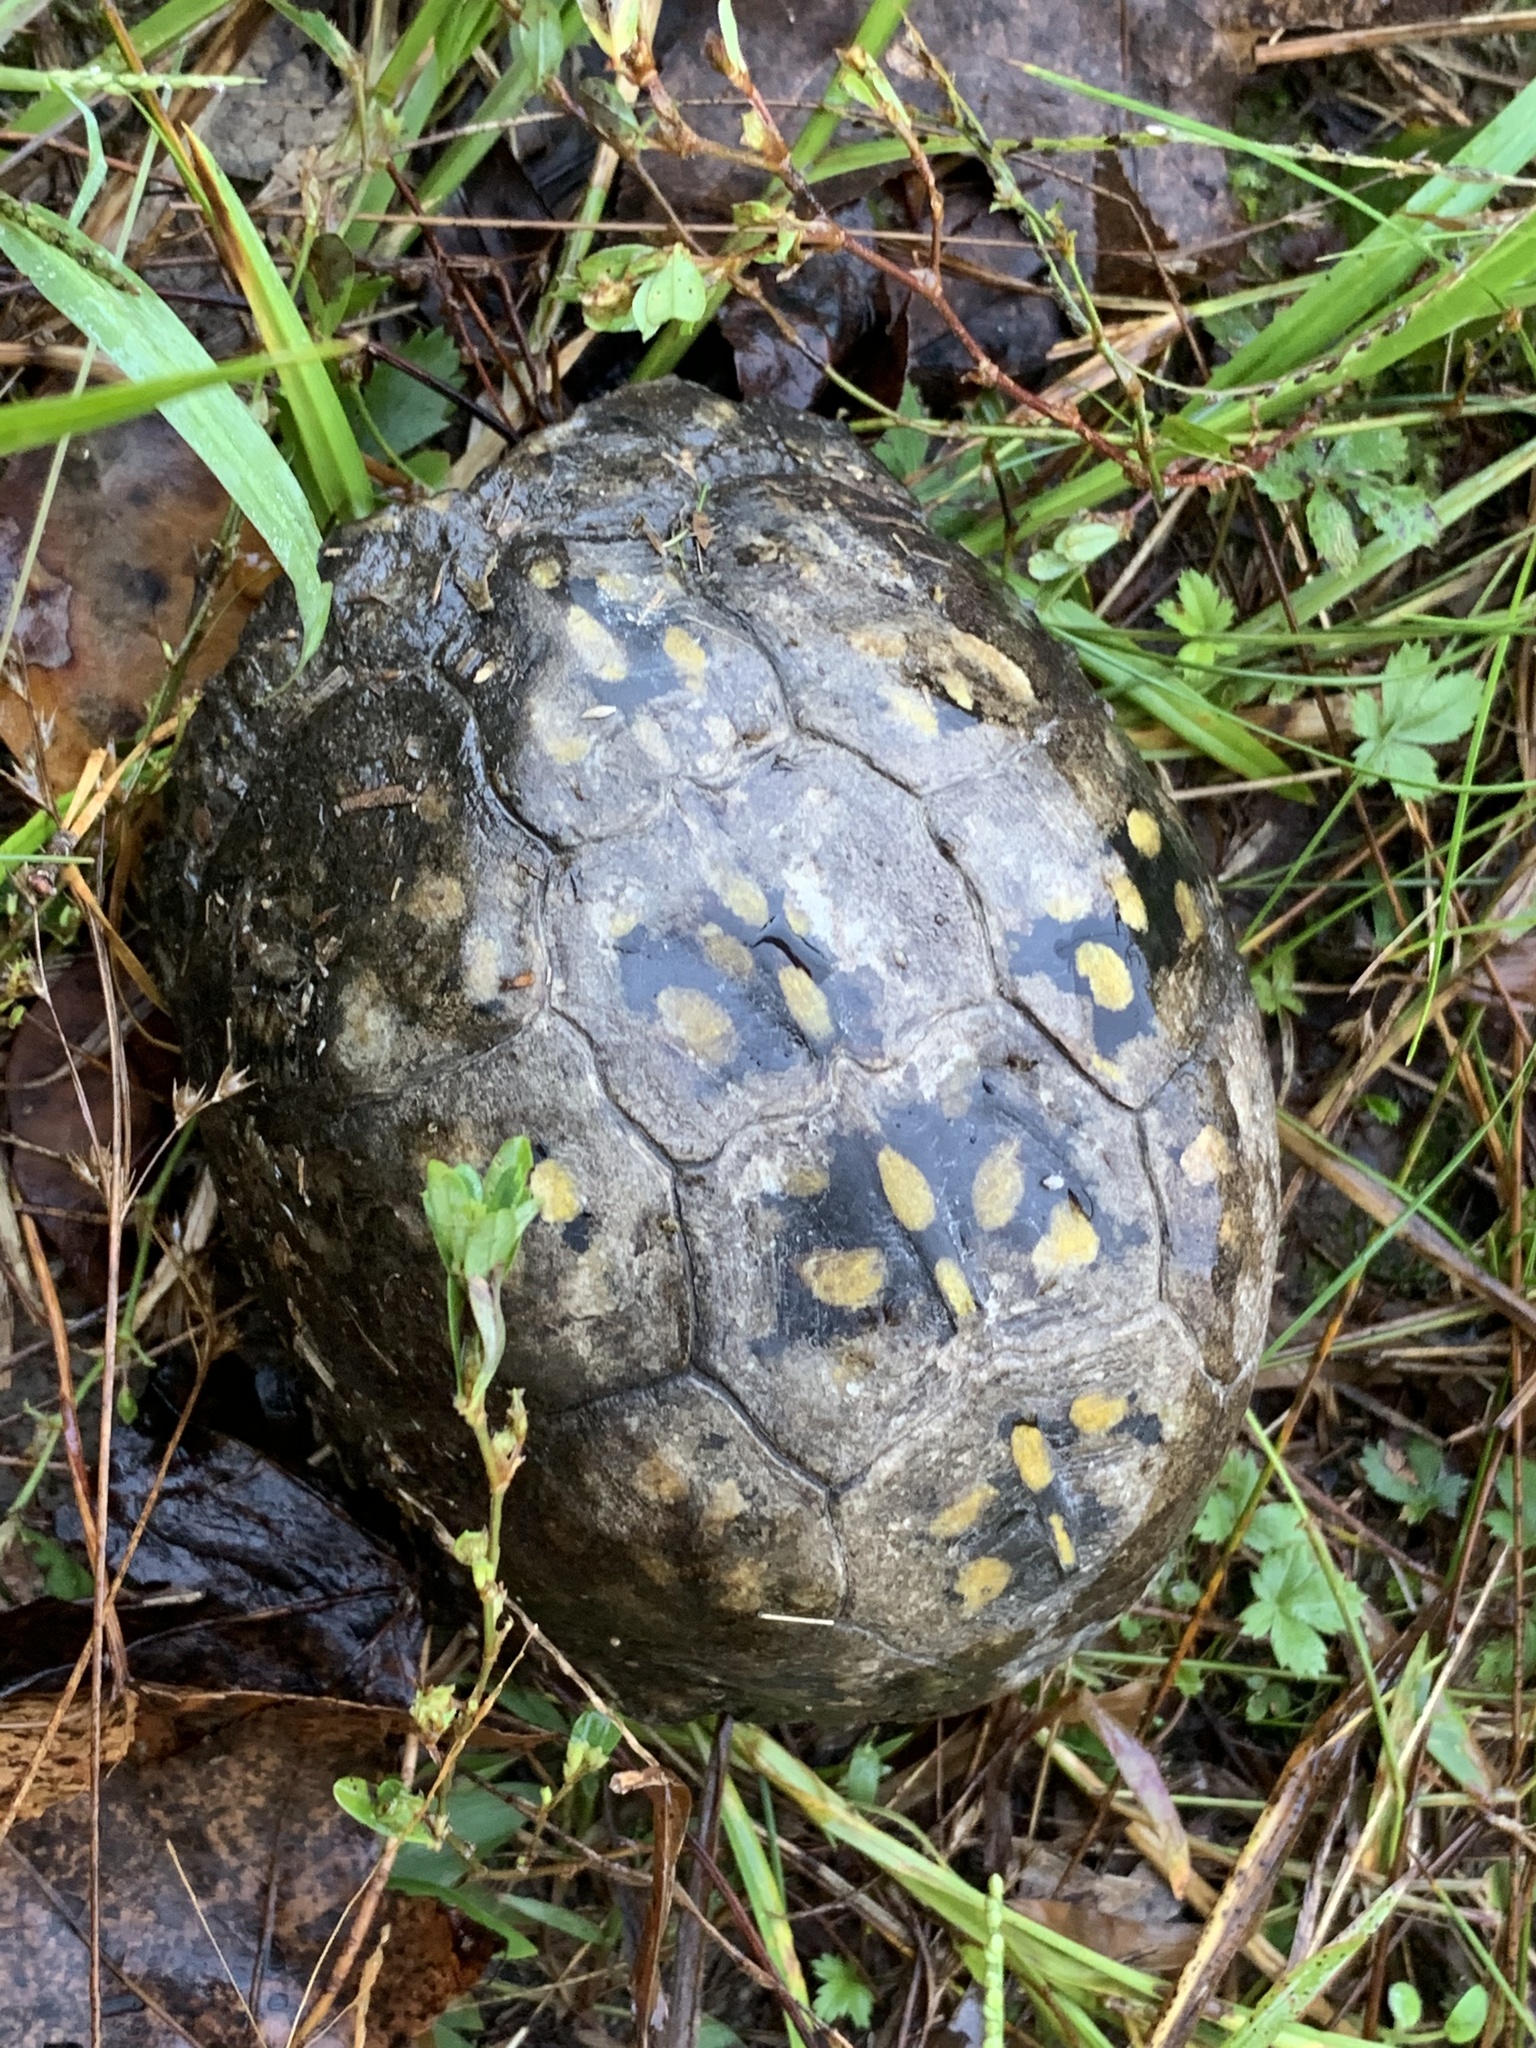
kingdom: Animalia
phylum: Chordata
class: Testudines
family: Emydidae
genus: Terrapene
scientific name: Terrapene carolina
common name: Common box turtle
